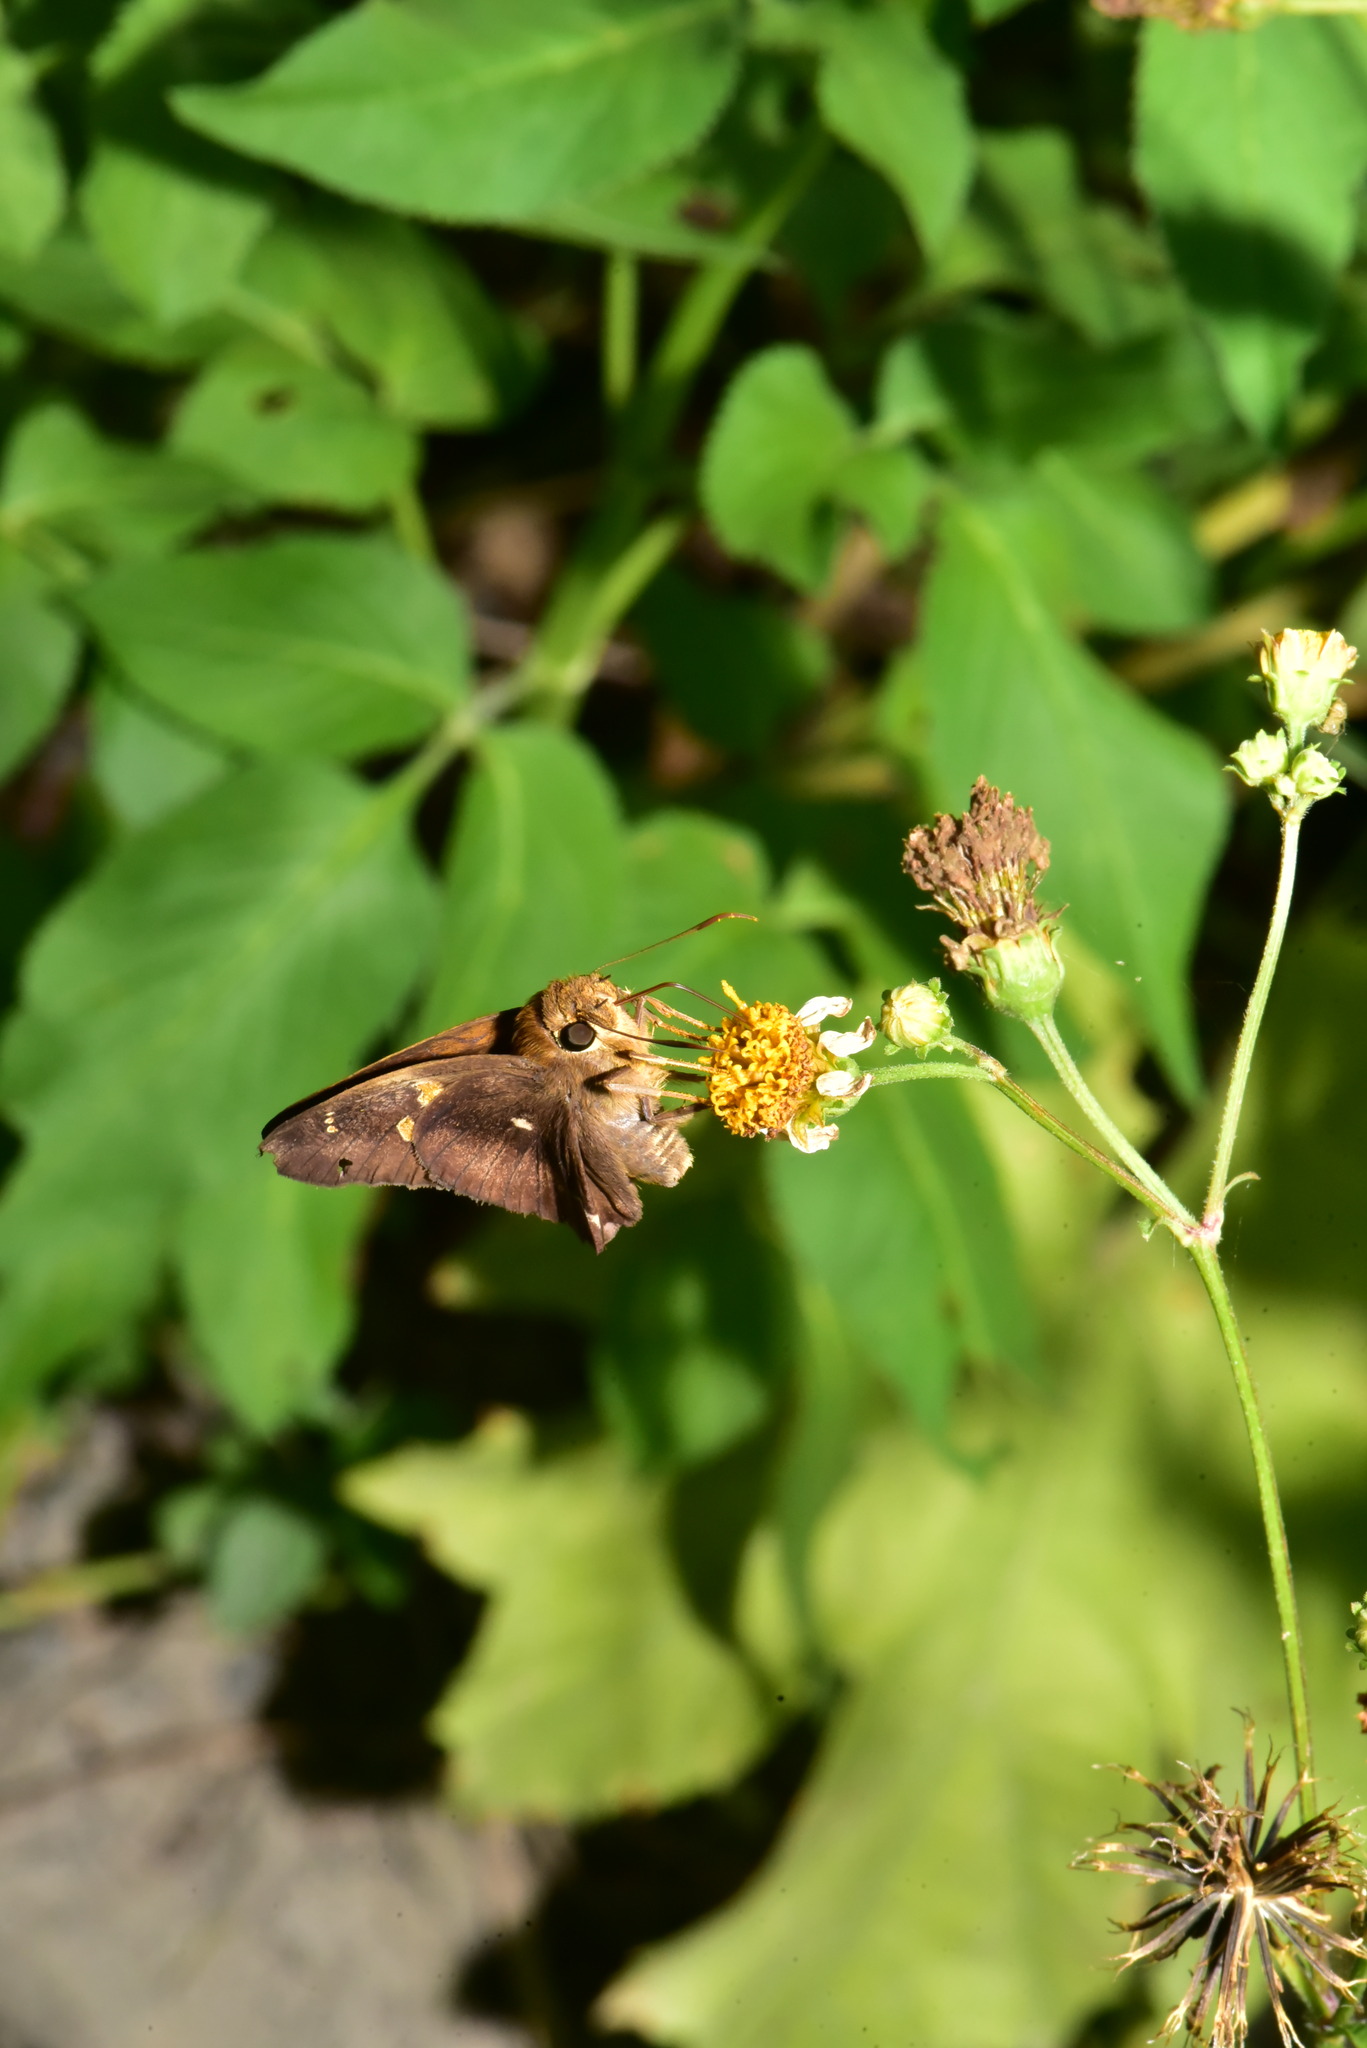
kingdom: Animalia
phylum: Arthropoda
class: Insecta
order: Lepidoptera
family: Hesperiidae
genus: Hasora
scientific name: Hasora badra
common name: Common awl
